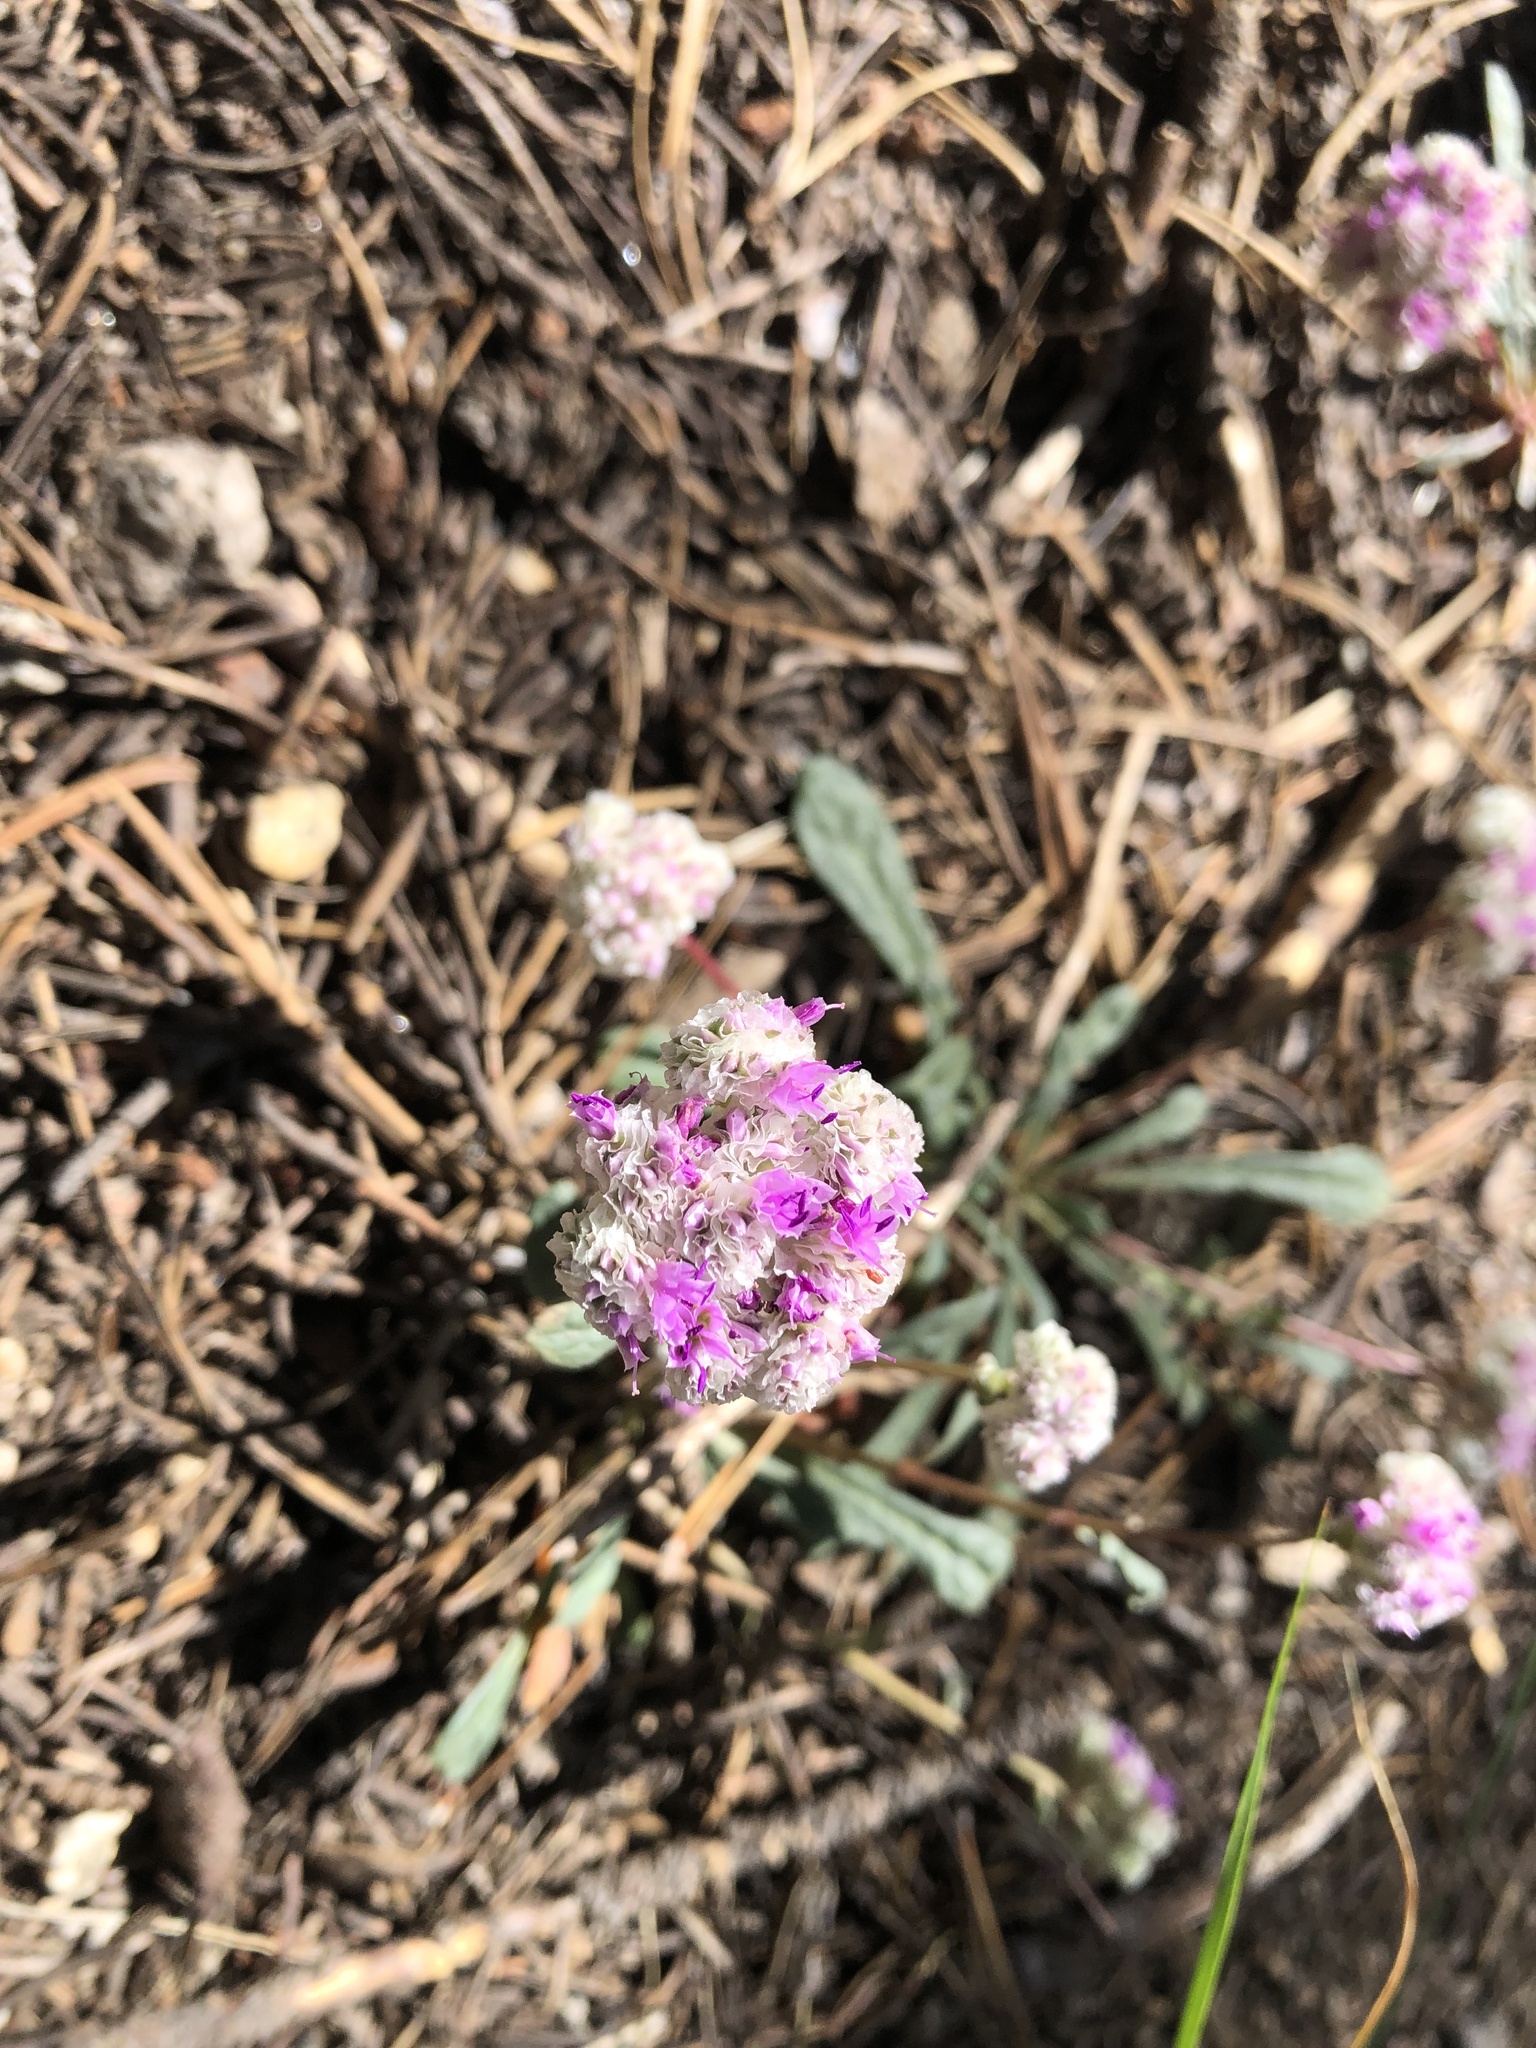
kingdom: Plantae
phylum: Tracheophyta
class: Magnoliopsida
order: Caryophyllales
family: Montiaceae
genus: Calyptridium
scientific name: Calyptridium monospermum
